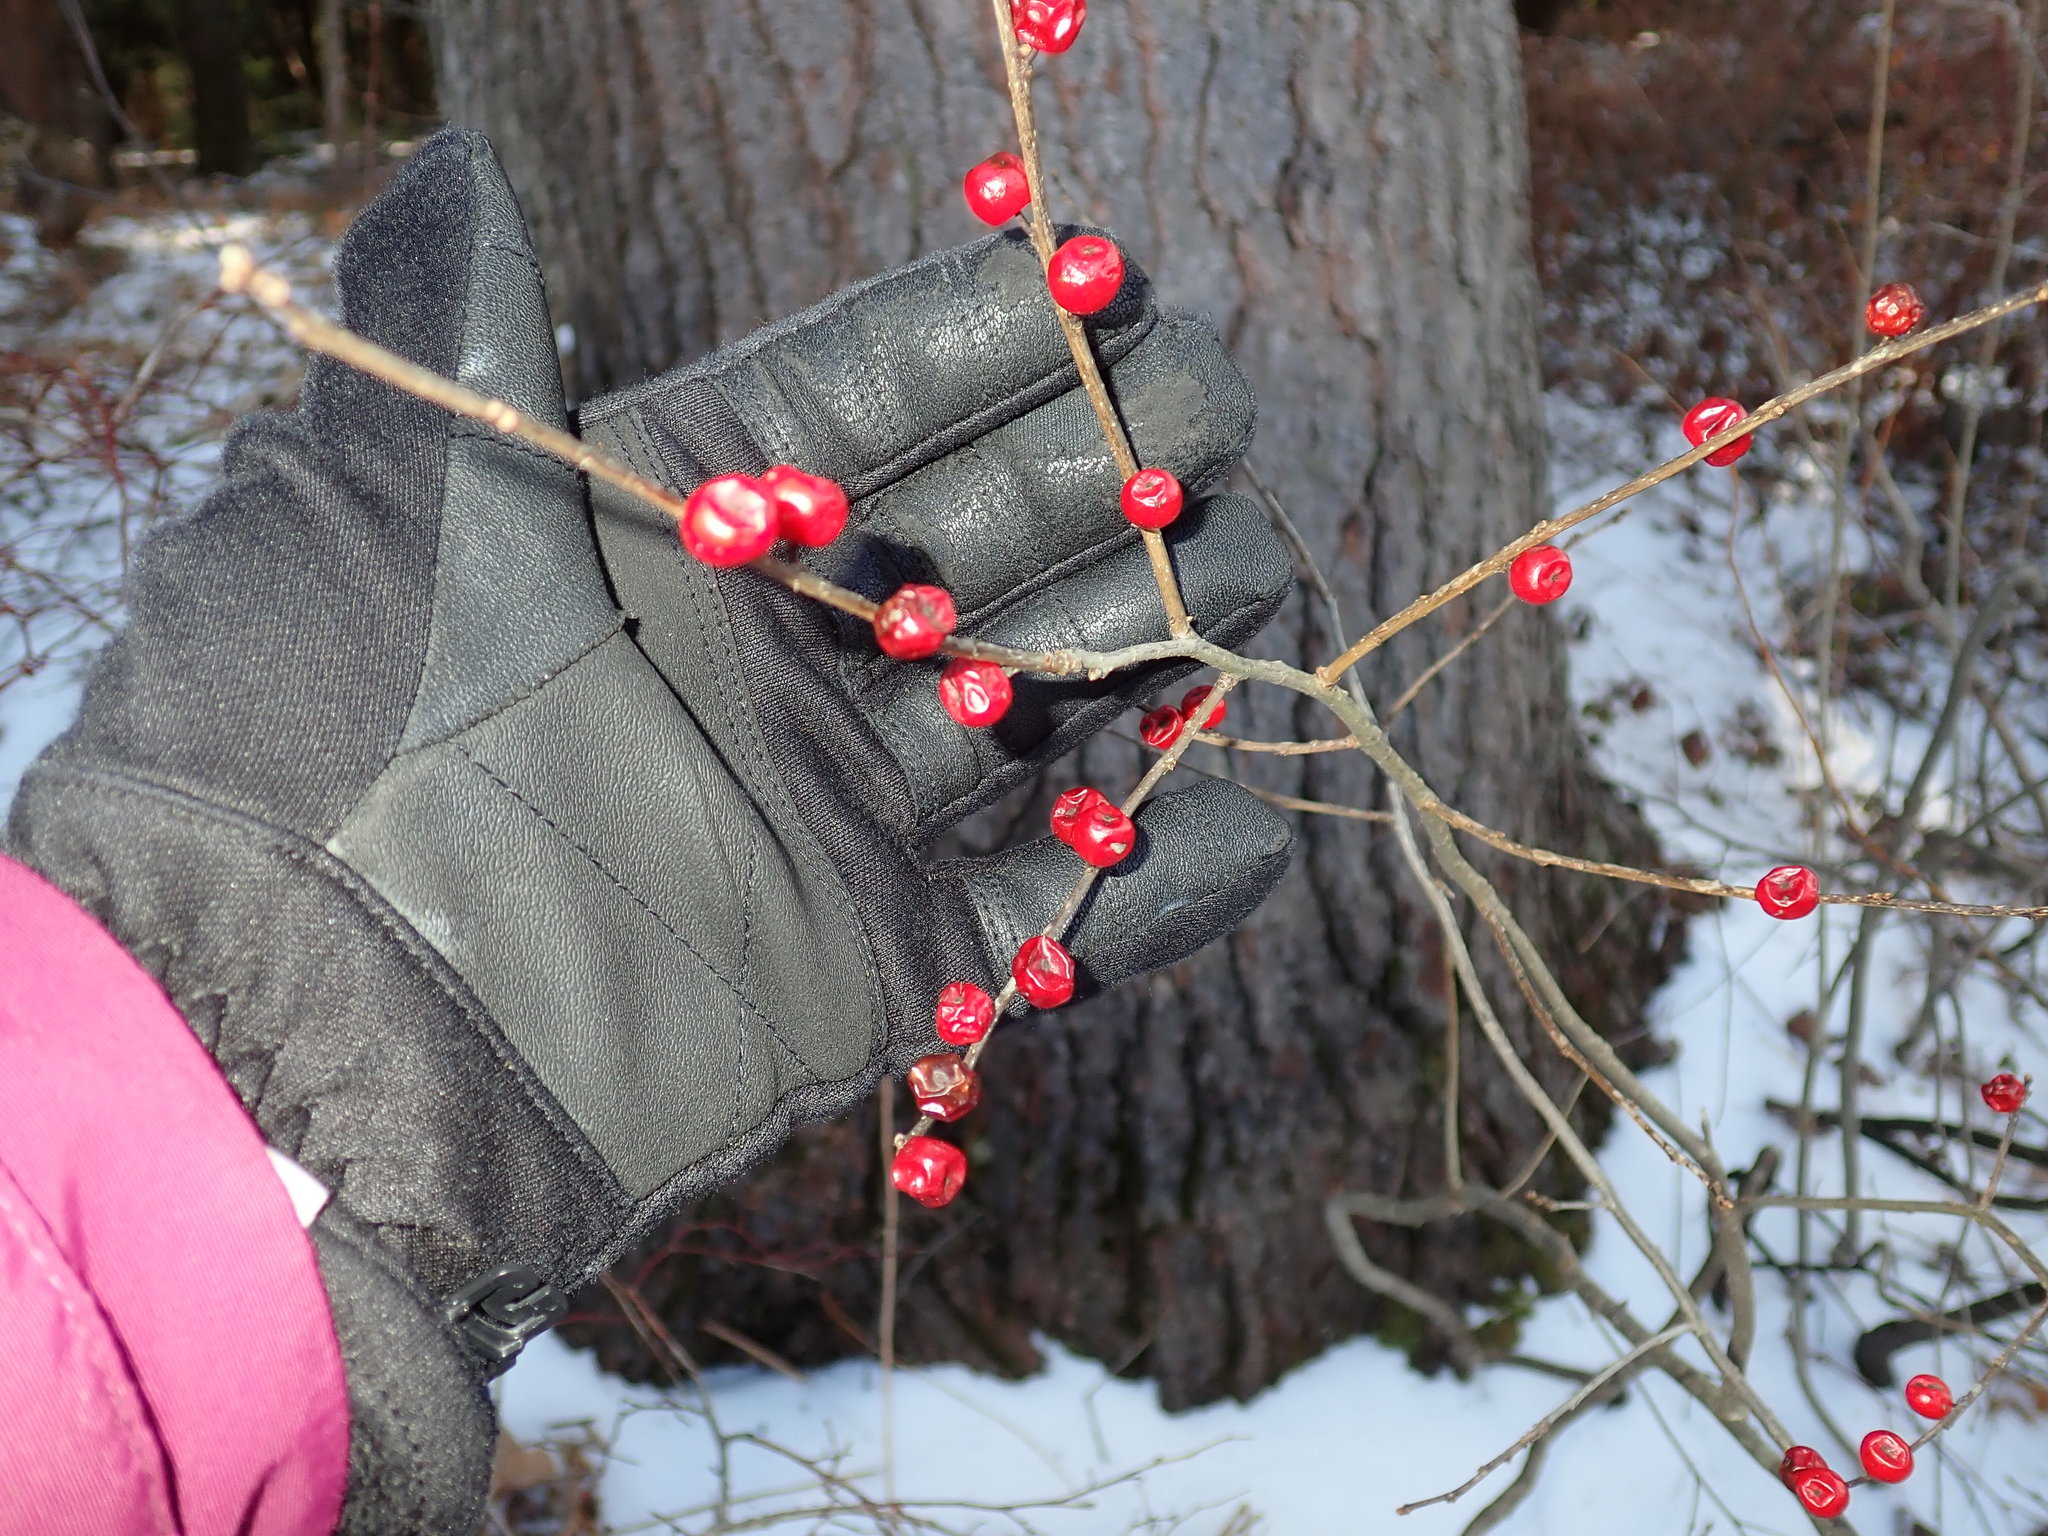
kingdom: Plantae
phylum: Tracheophyta
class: Magnoliopsida
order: Aquifoliales
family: Aquifoliaceae
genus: Ilex
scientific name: Ilex verticillata
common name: Virginia winterberry
